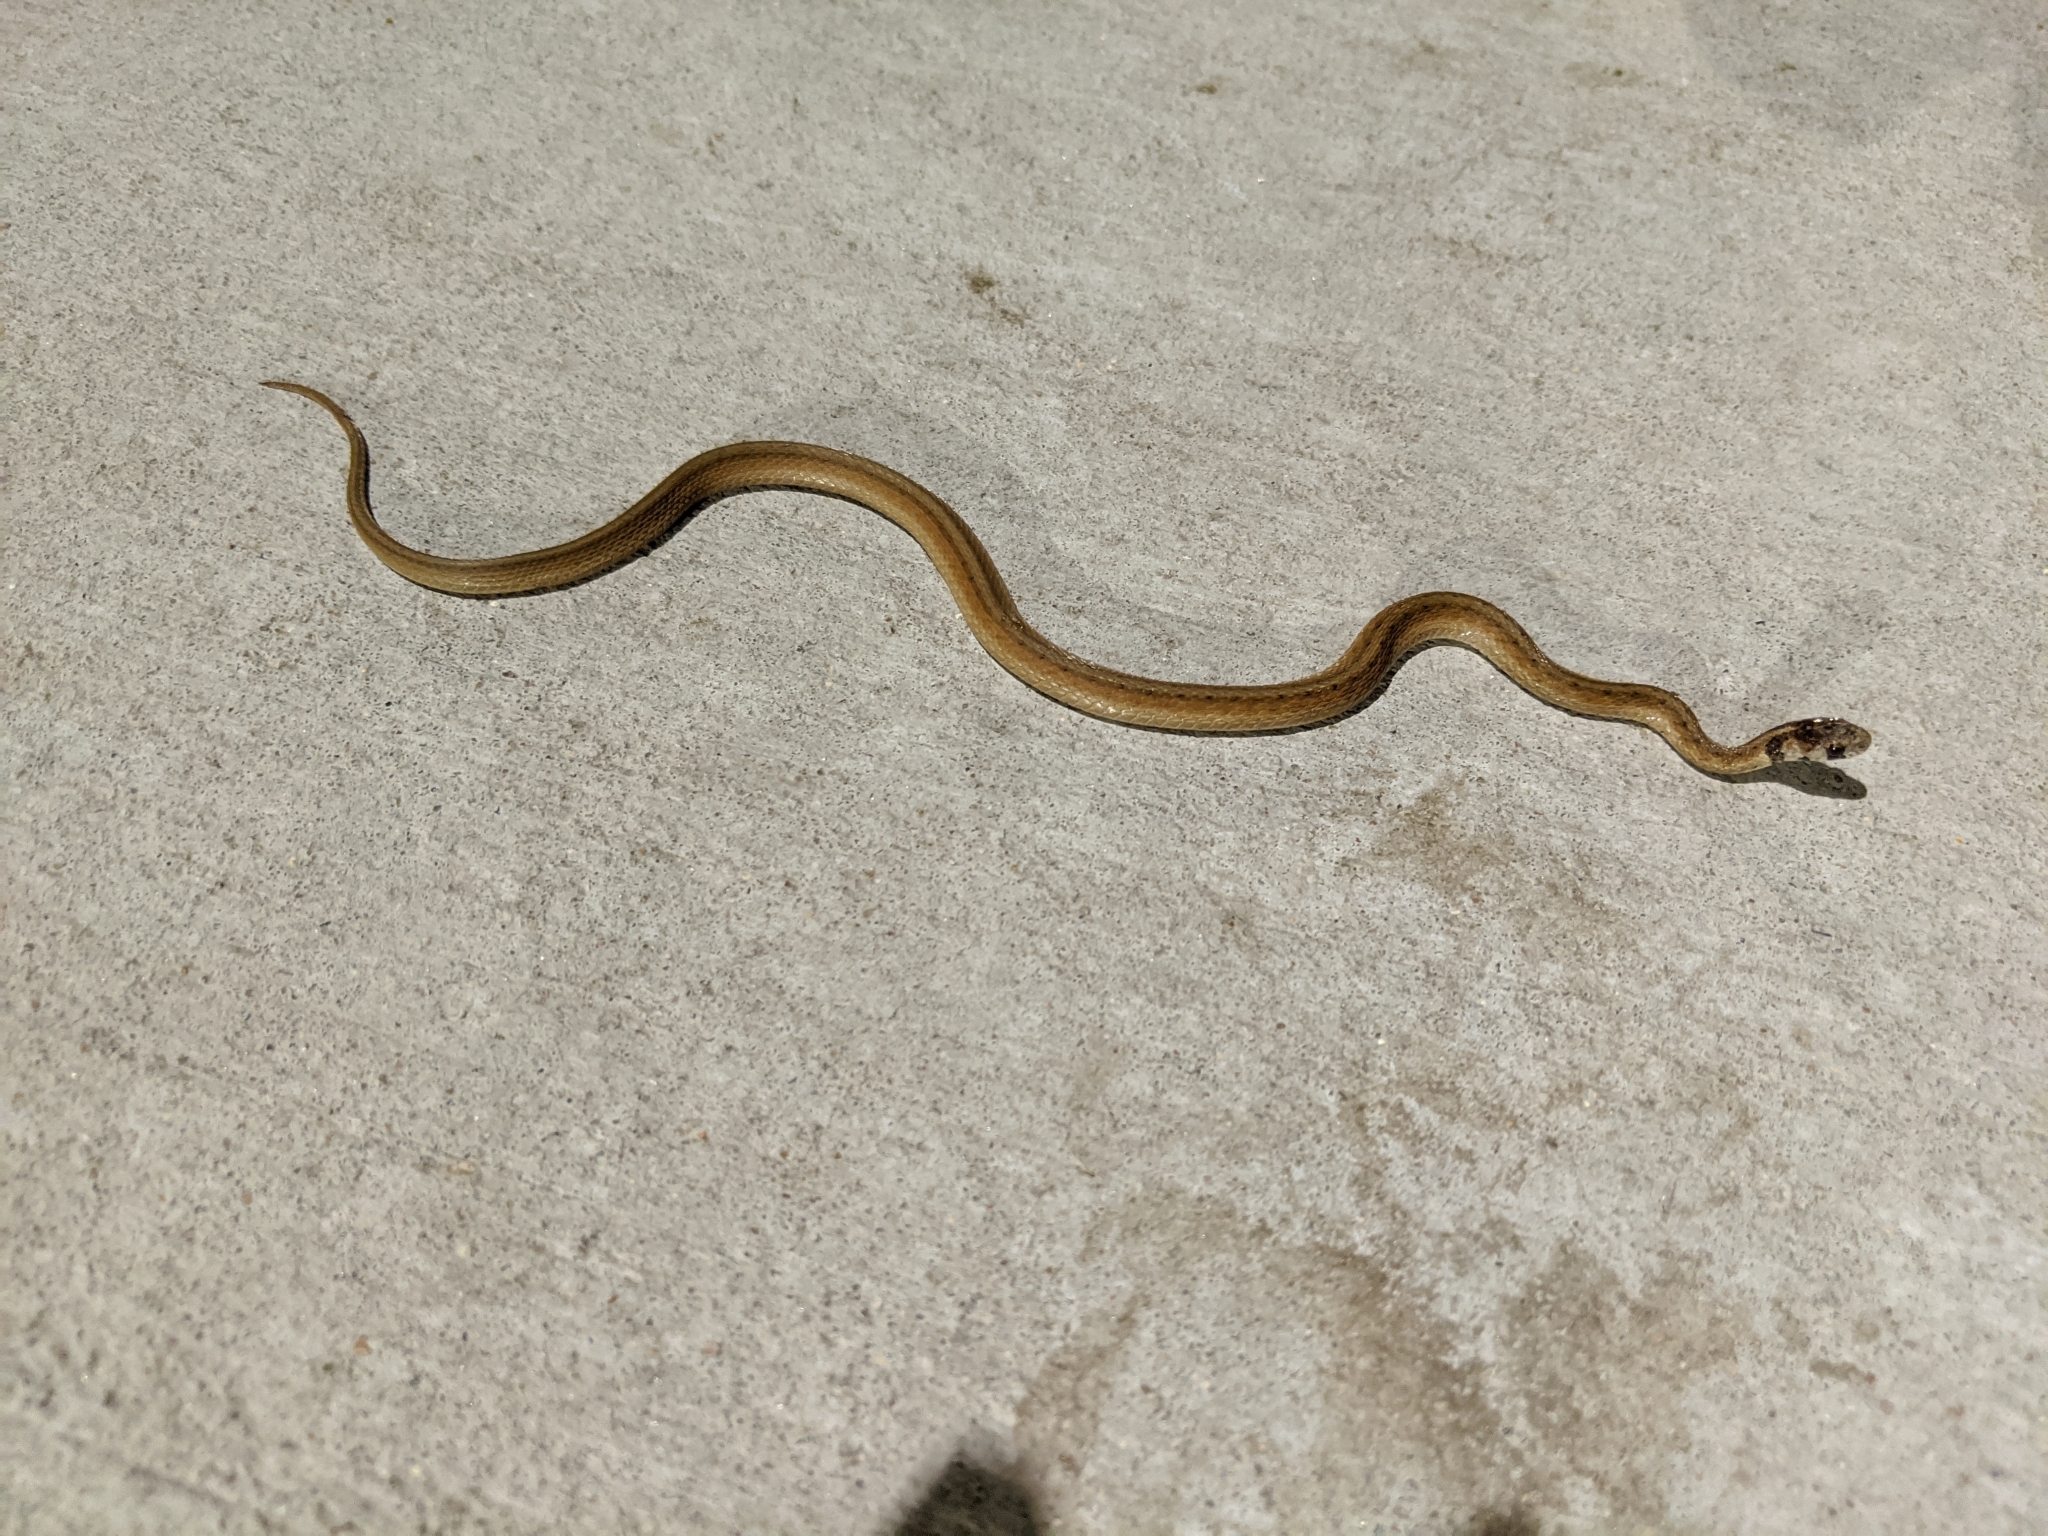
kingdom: Animalia
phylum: Chordata
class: Squamata
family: Colubridae
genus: Storeria
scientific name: Storeria dekayi
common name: (dekay’s) brown snake
